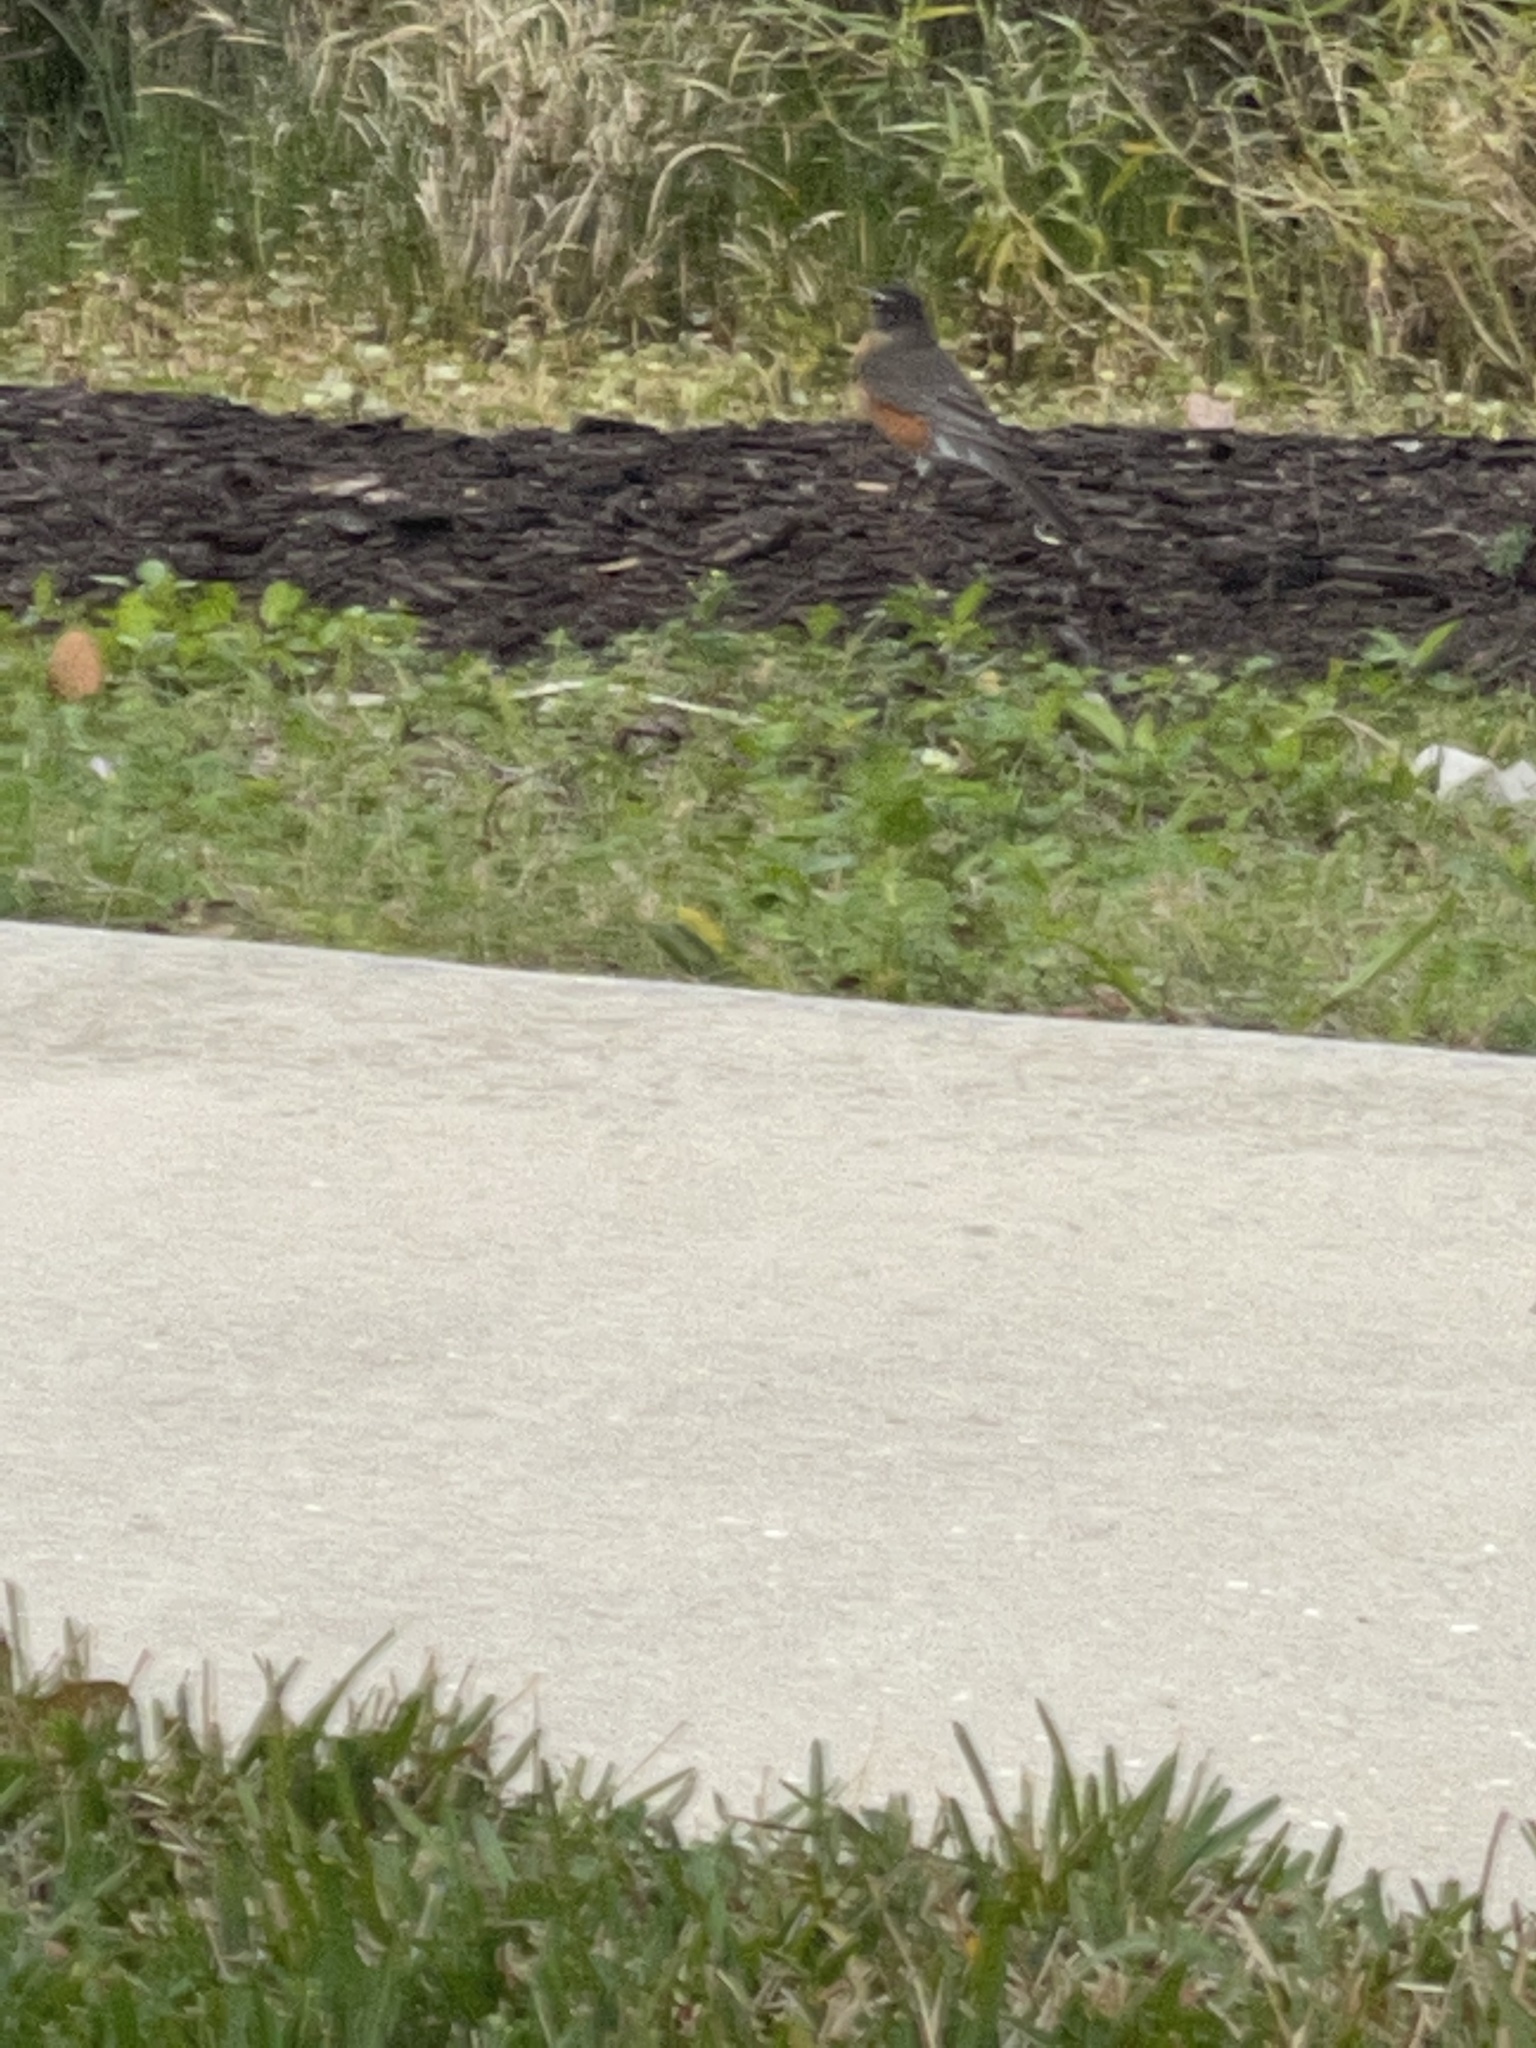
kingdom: Animalia
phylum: Chordata
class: Aves
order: Passeriformes
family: Turdidae
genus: Turdus
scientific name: Turdus migratorius
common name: American robin
